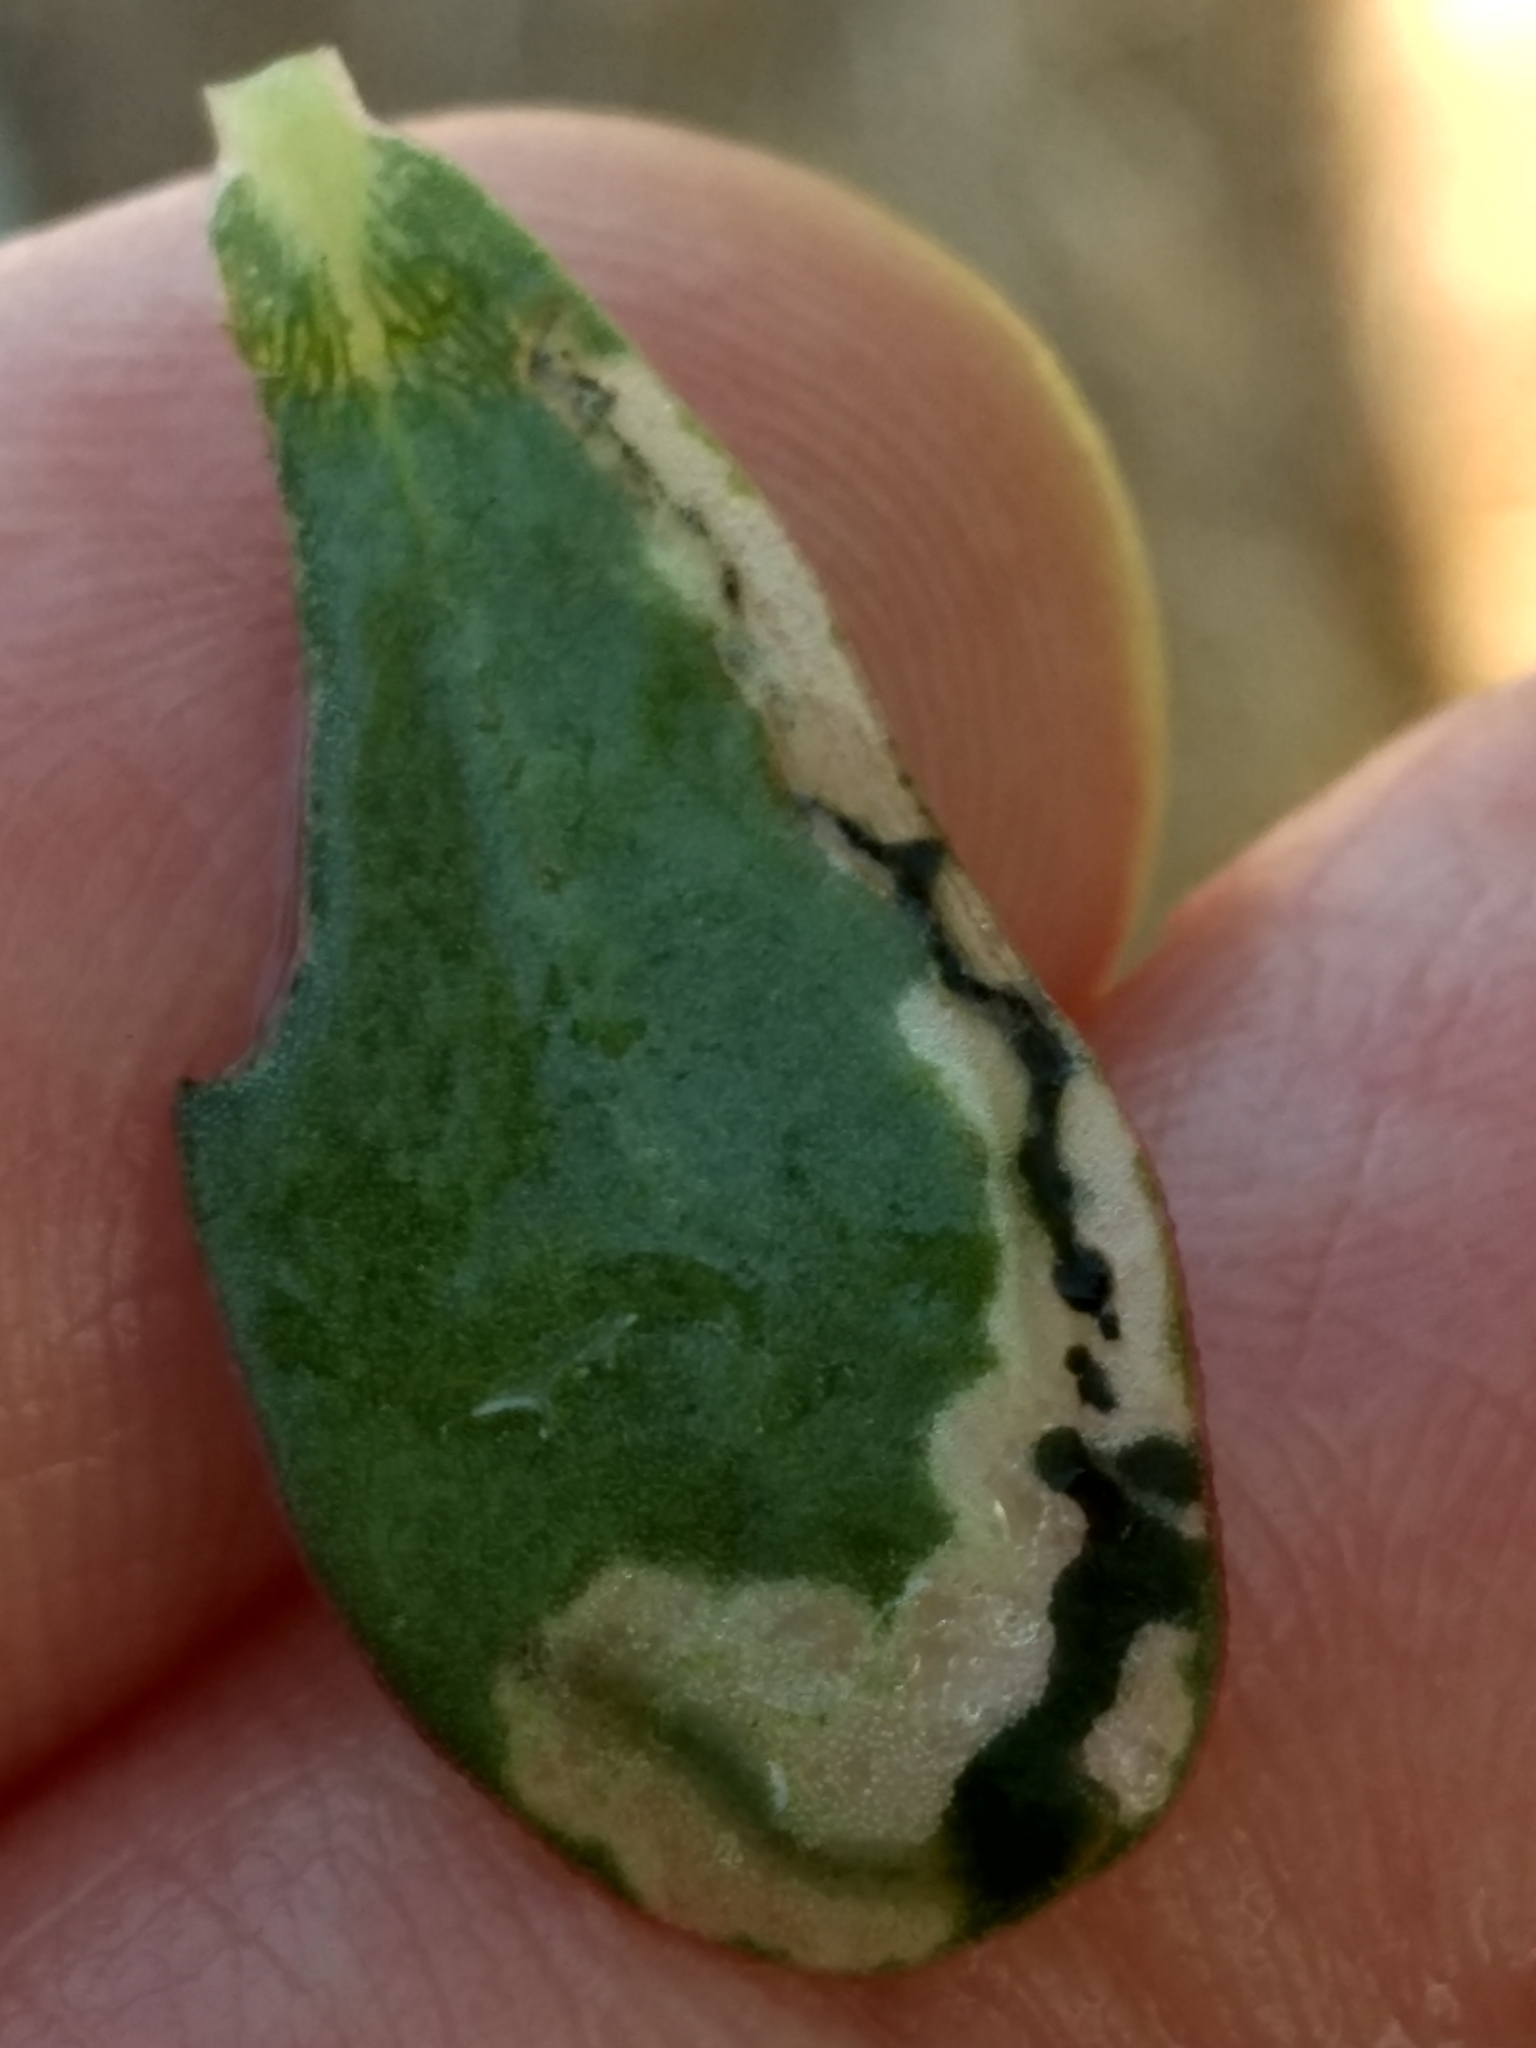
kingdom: Animalia
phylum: Arthropoda
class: Insecta
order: Hymenoptera
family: Argidae
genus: Schizocerella
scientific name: Schizocerella pilicornis
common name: Purslane sawfly
